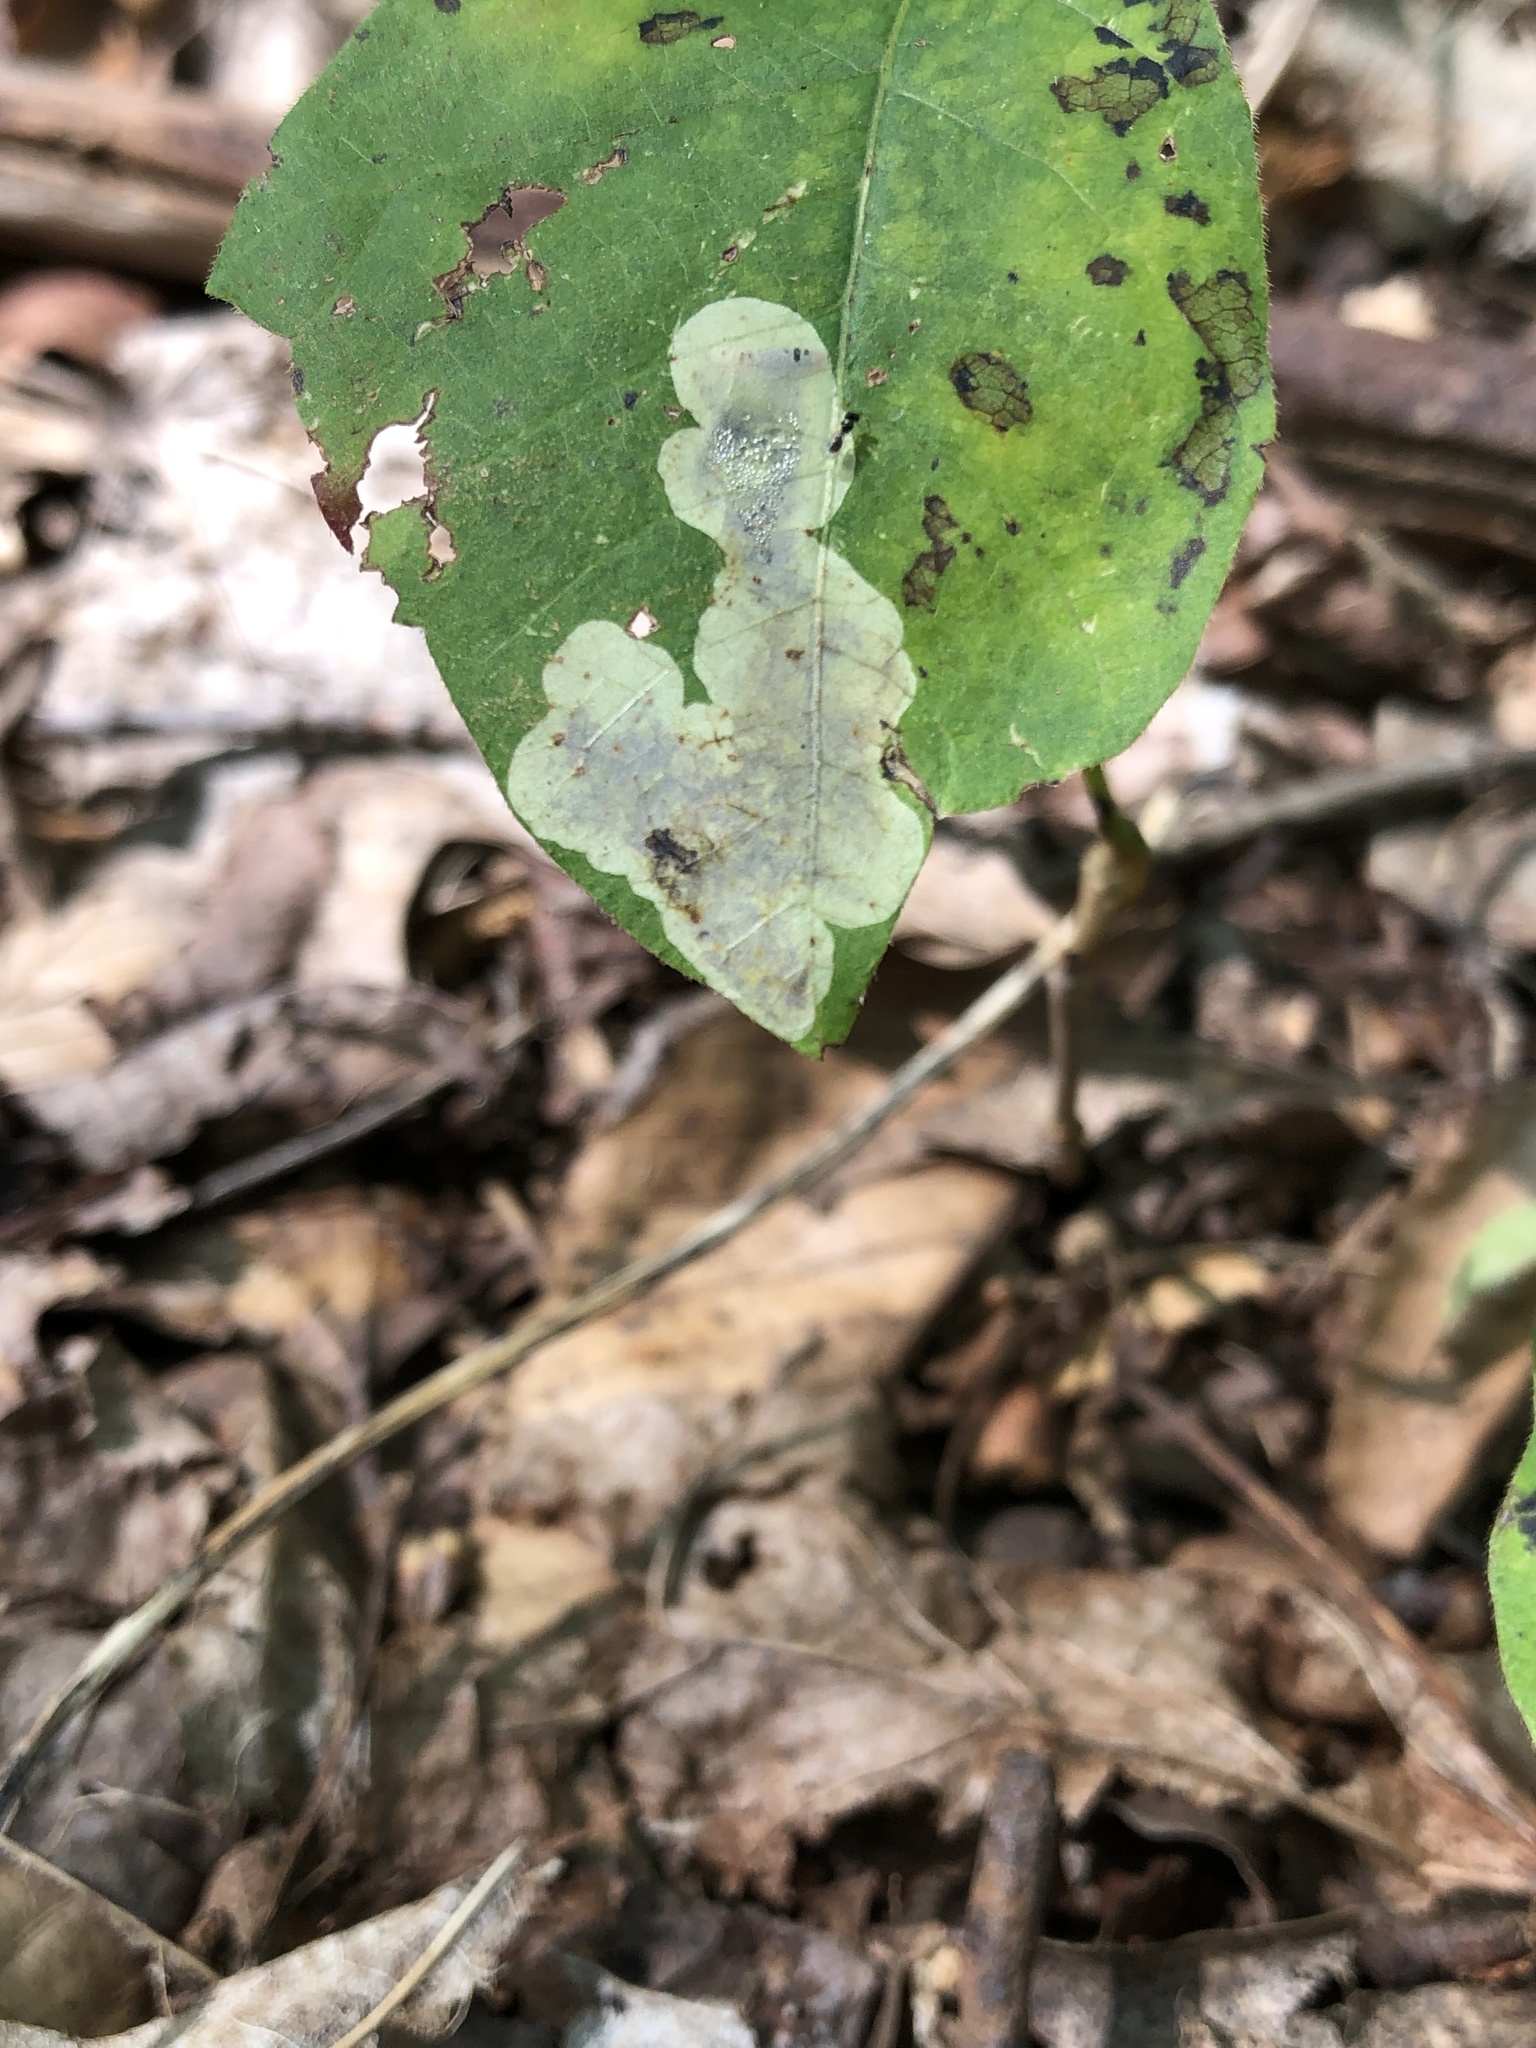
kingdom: Animalia
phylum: Arthropoda
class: Insecta
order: Lepidoptera
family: Gracillariidae
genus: Cameraria
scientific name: Cameraria guttifinitella
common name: Poison ivy leaf-miner moth
